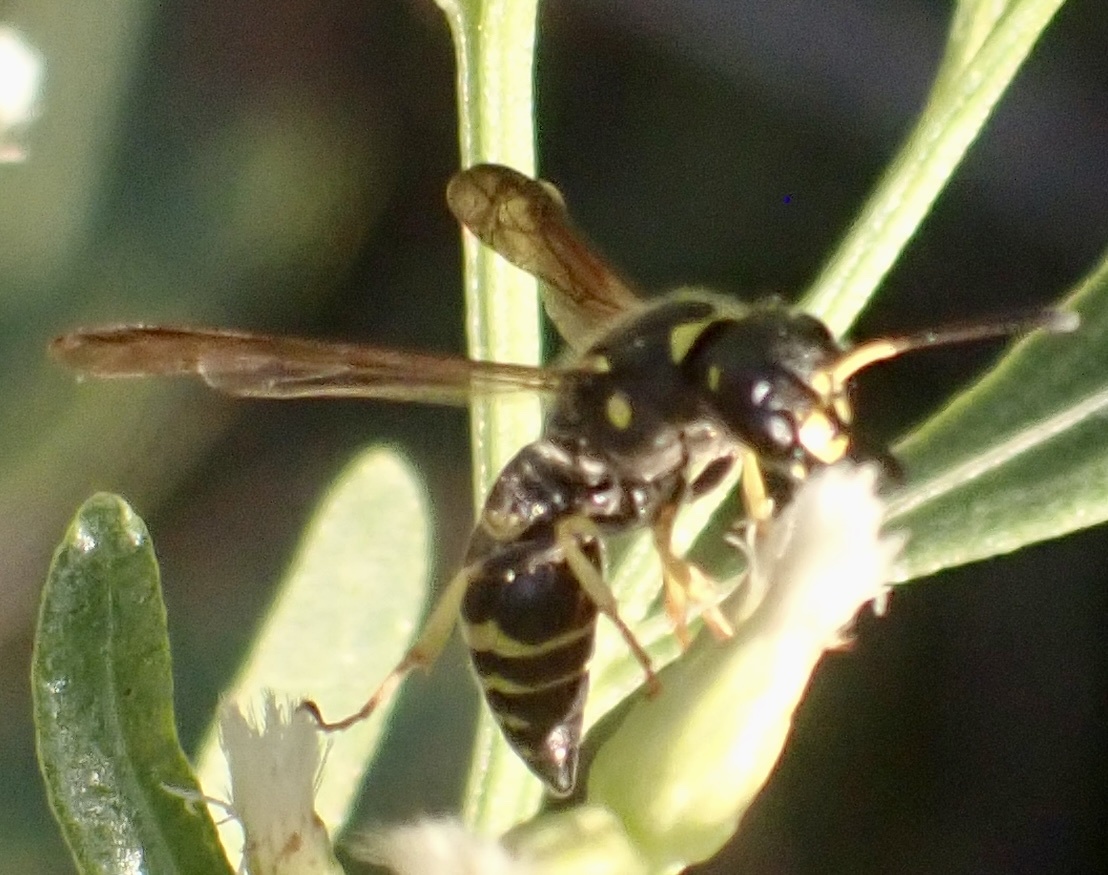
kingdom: Animalia
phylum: Arthropoda
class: Insecta
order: Hymenoptera
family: Vespidae
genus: Ancistrocerus
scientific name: Ancistrocerus
